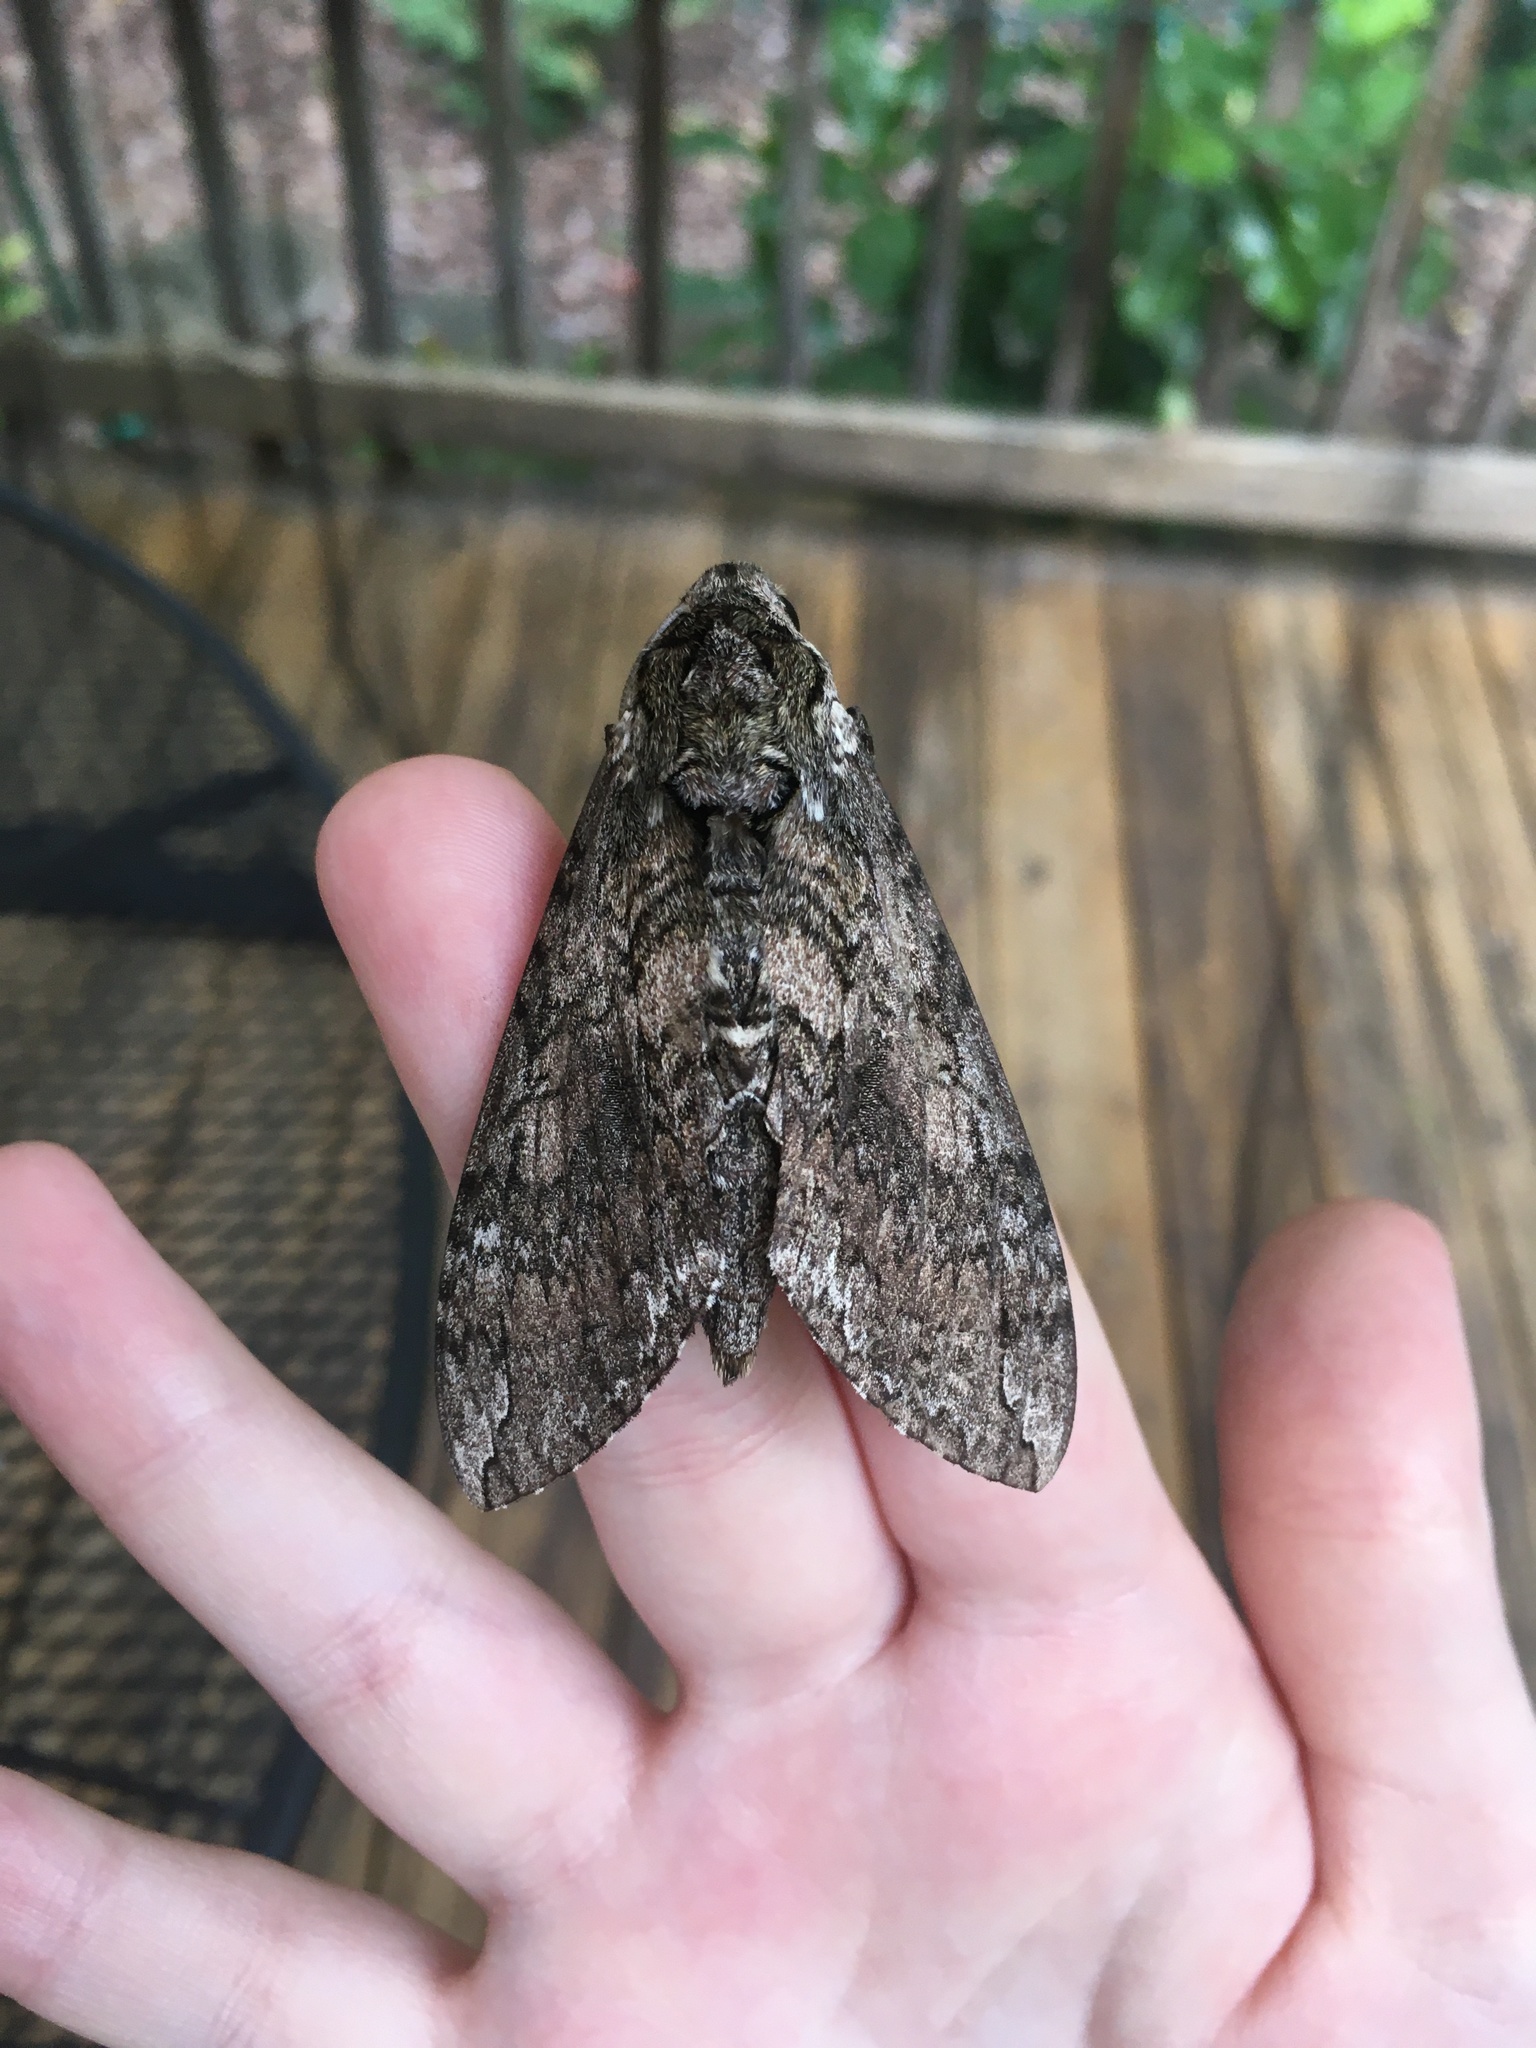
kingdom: Animalia
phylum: Arthropoda
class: Insecta
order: Lepidoptera
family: Sphingidae
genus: Manduca
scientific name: Manduca sexta
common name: Carolina sphinx
